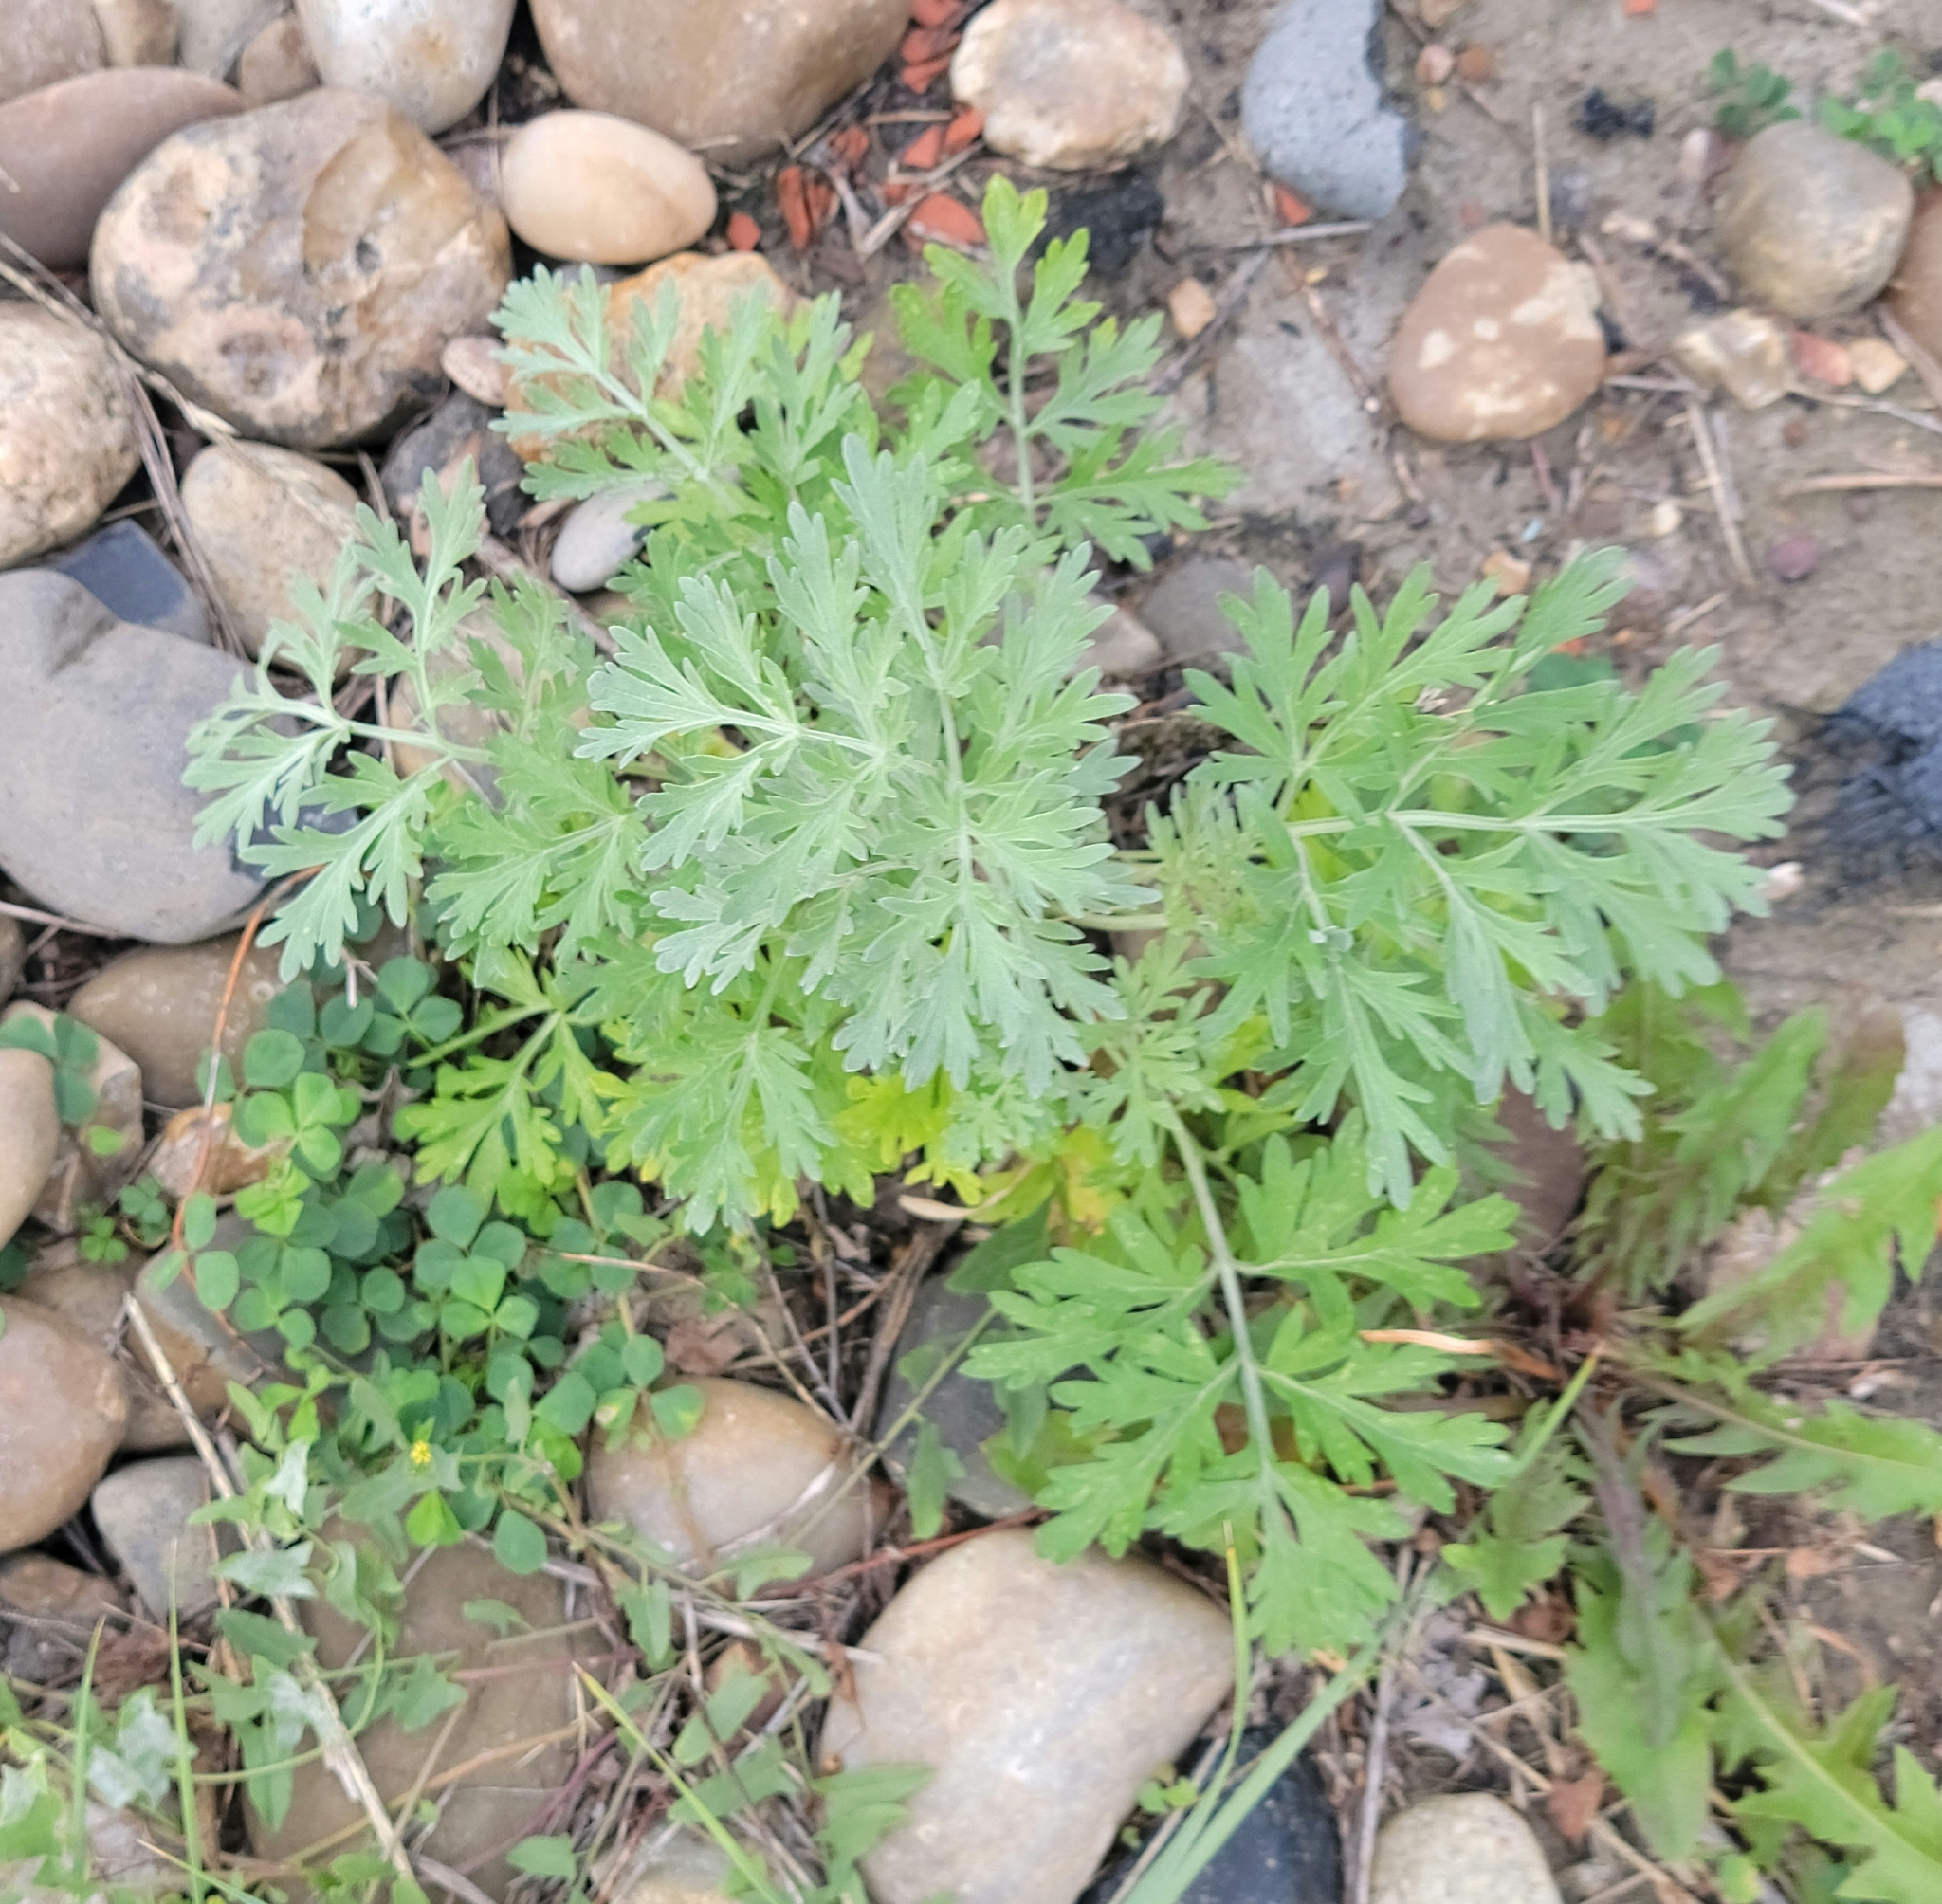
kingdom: Plantae
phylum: Tracheophyta
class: Magnoliopsida
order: Asterales
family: Asteraceae
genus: Artemisia
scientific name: Artemisia absinthium
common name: Wormwood
